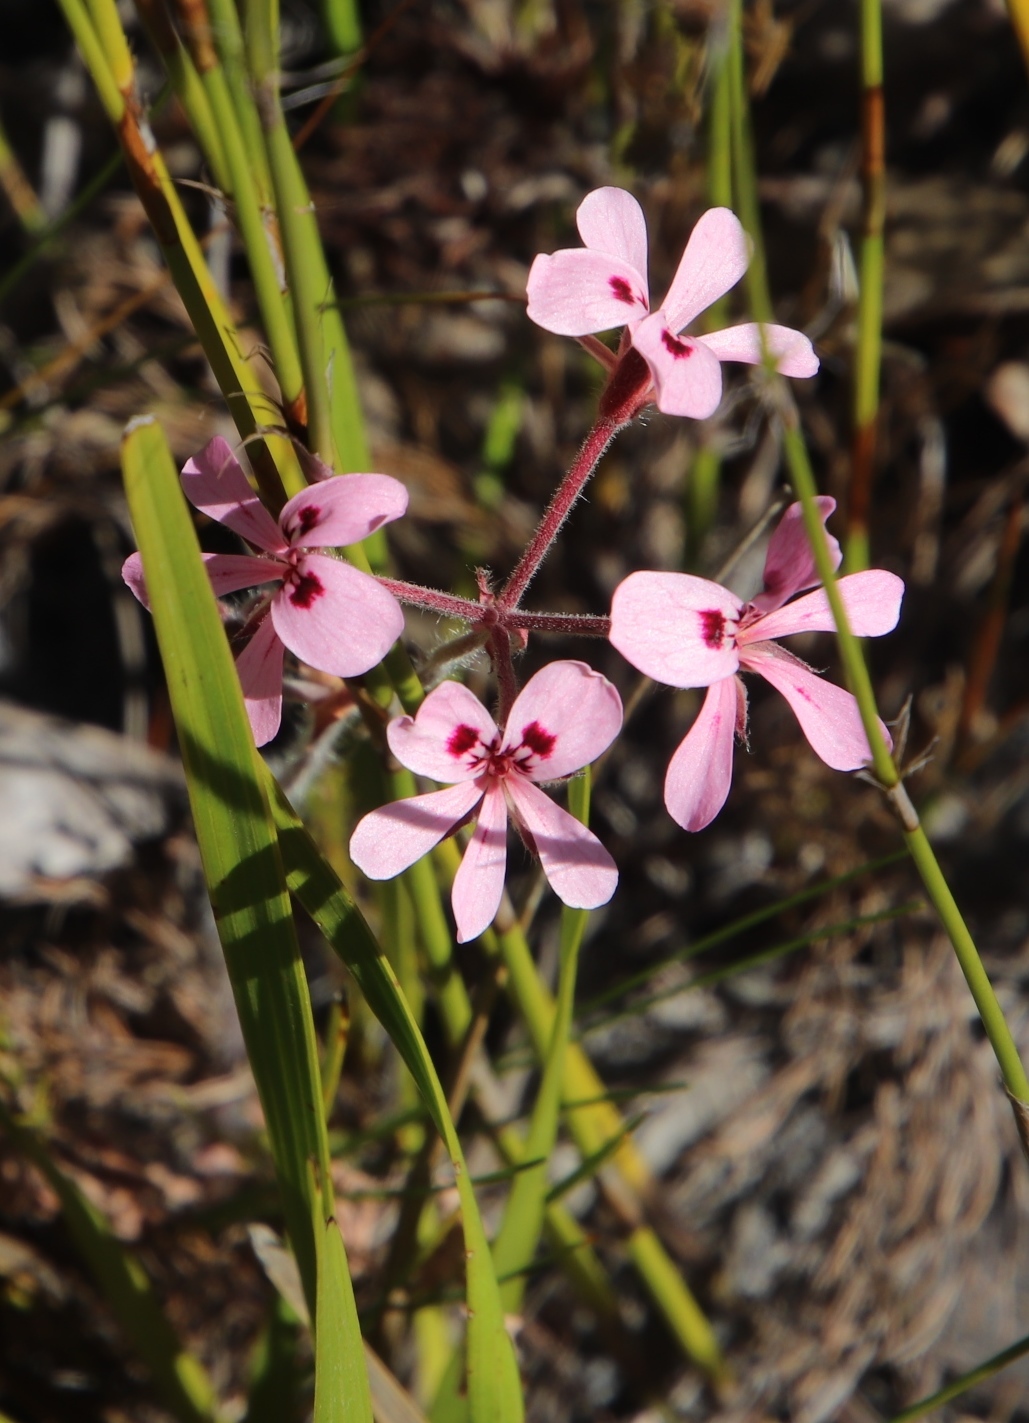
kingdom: Plantae
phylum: Tracheophyta
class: Magnoliopsida
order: Geraniales
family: Geraniaceae
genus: Pelargonium
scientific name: Pelargonium pinnatum
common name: Pinnated pelargonium
